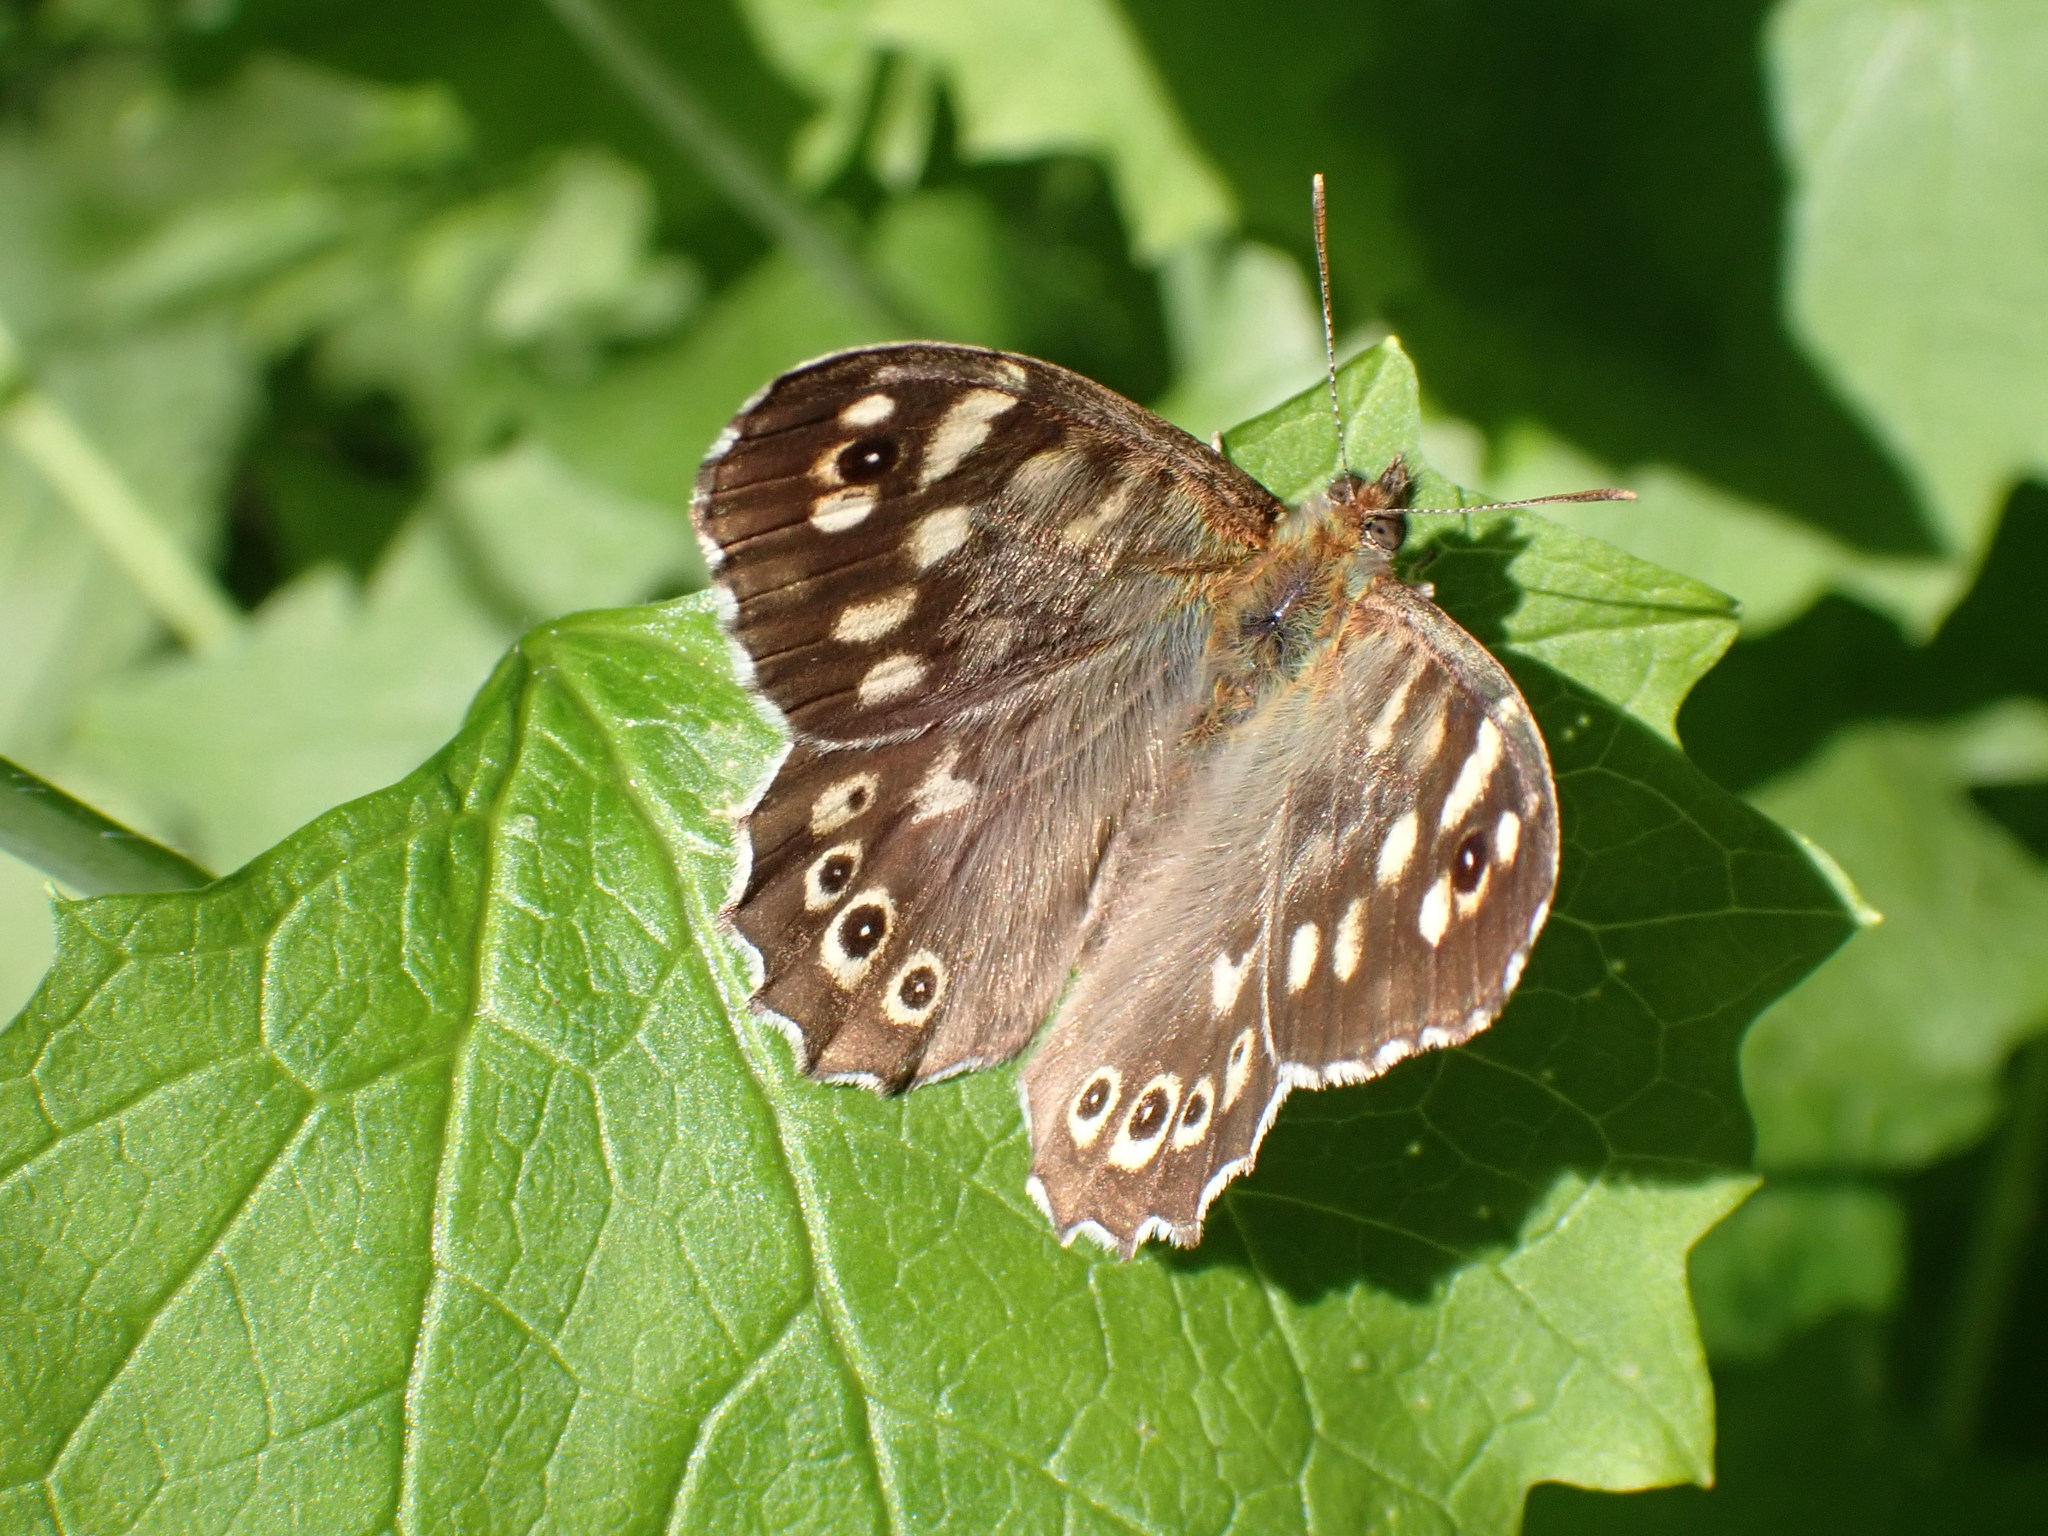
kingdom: Animalia
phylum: Arthropoda
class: Insecta
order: Lepidoptera
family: Nymphalidae
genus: Pararge
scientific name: Pararge aegeria
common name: Speckled wood
